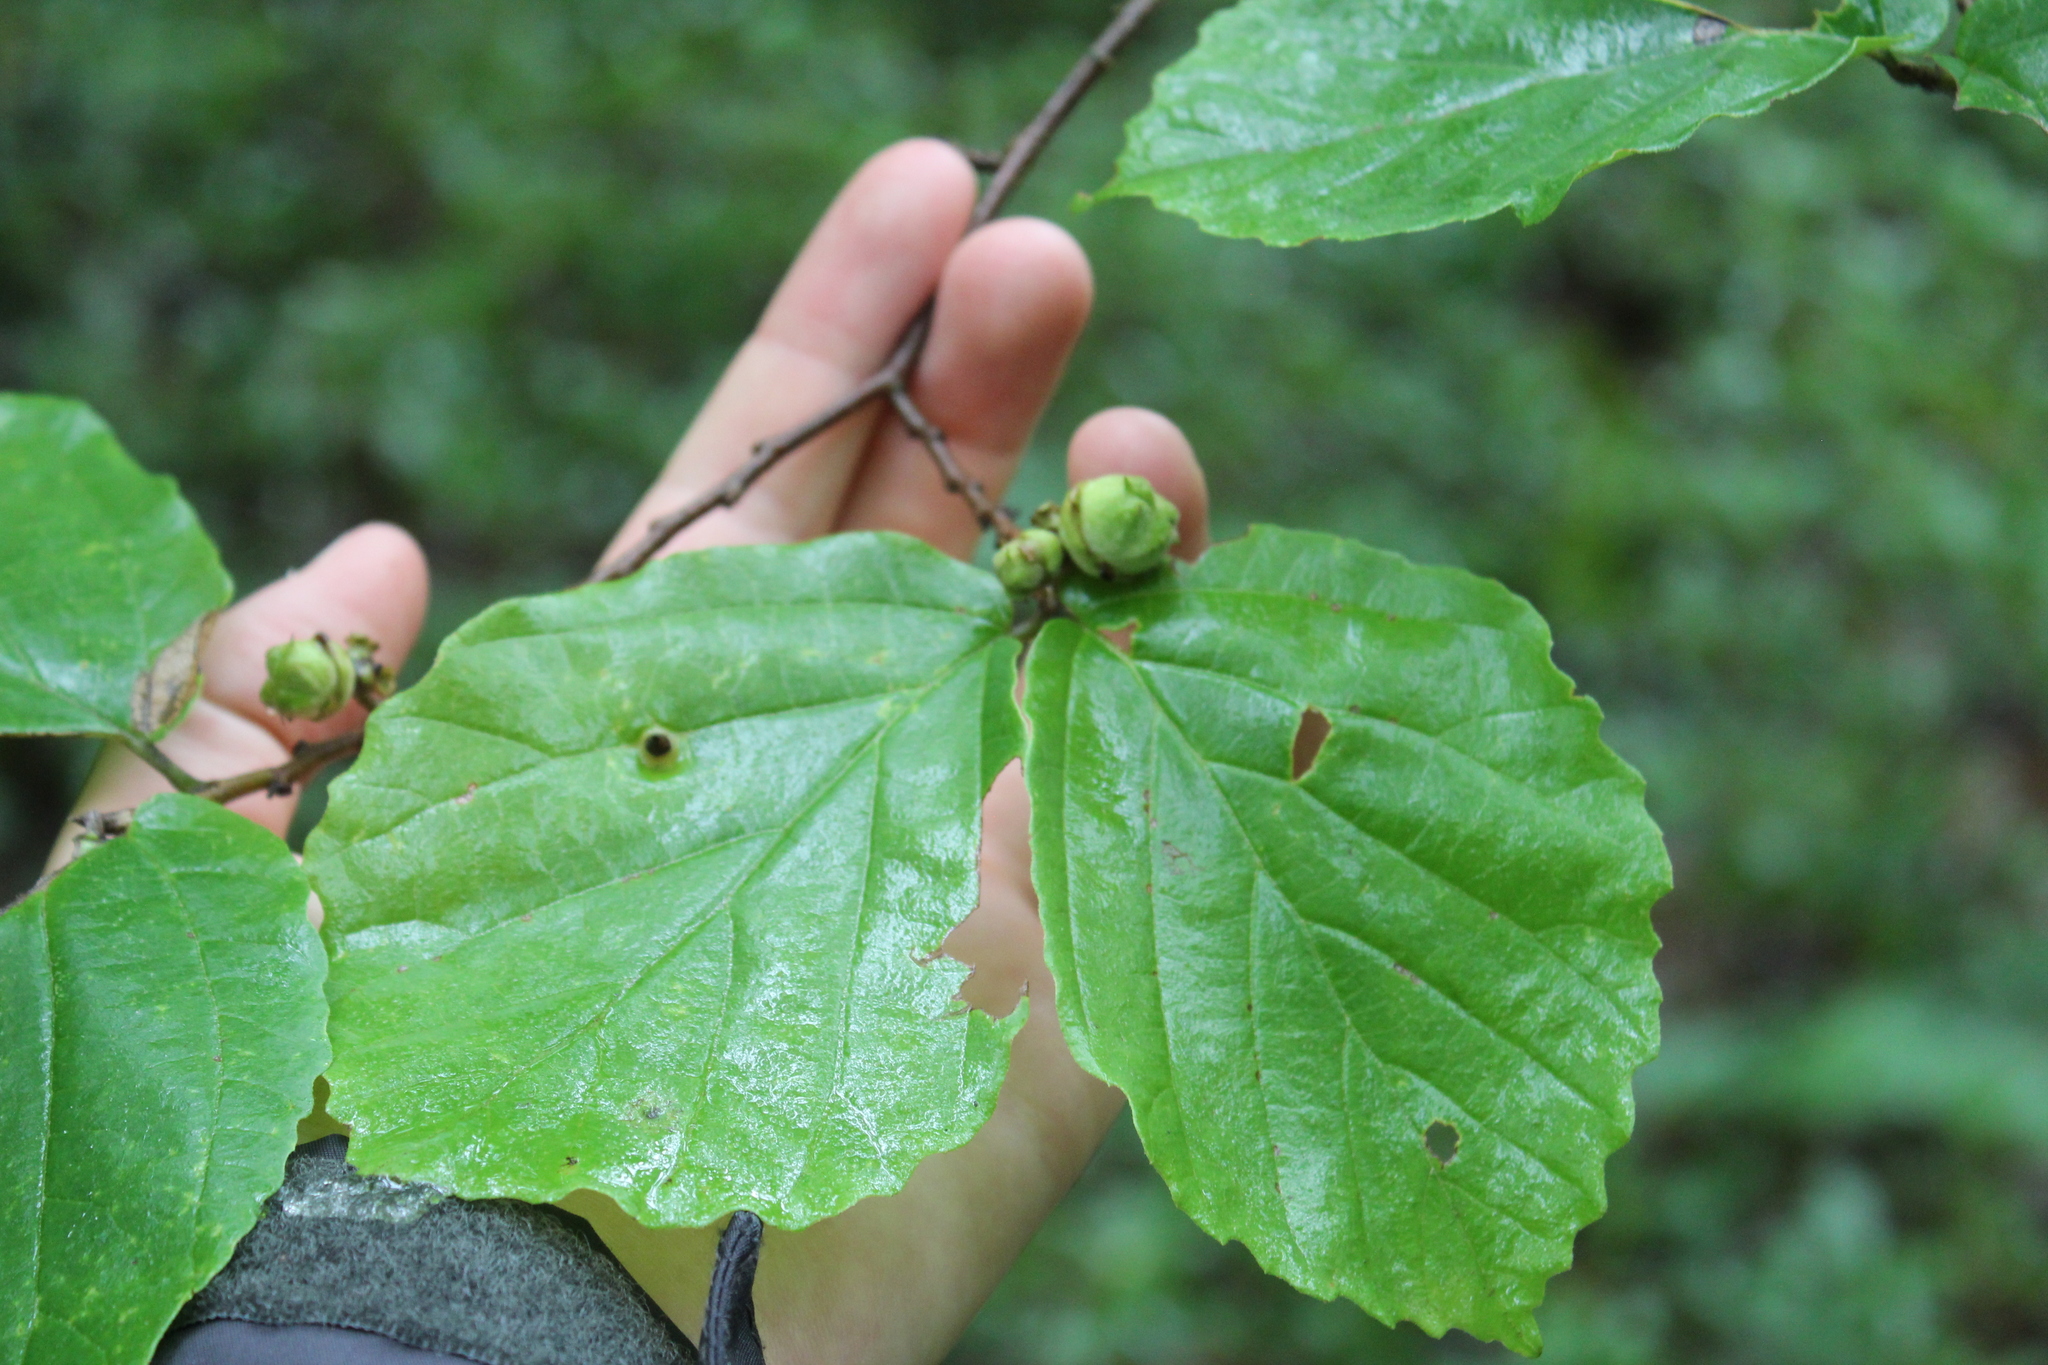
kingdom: Plantae
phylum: Tracheophyta
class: Magnoliopsida
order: Saxifragales
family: Hamamelidaceae
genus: Hamamelis
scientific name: Hamamelis virginiana
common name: Witch-hazel
